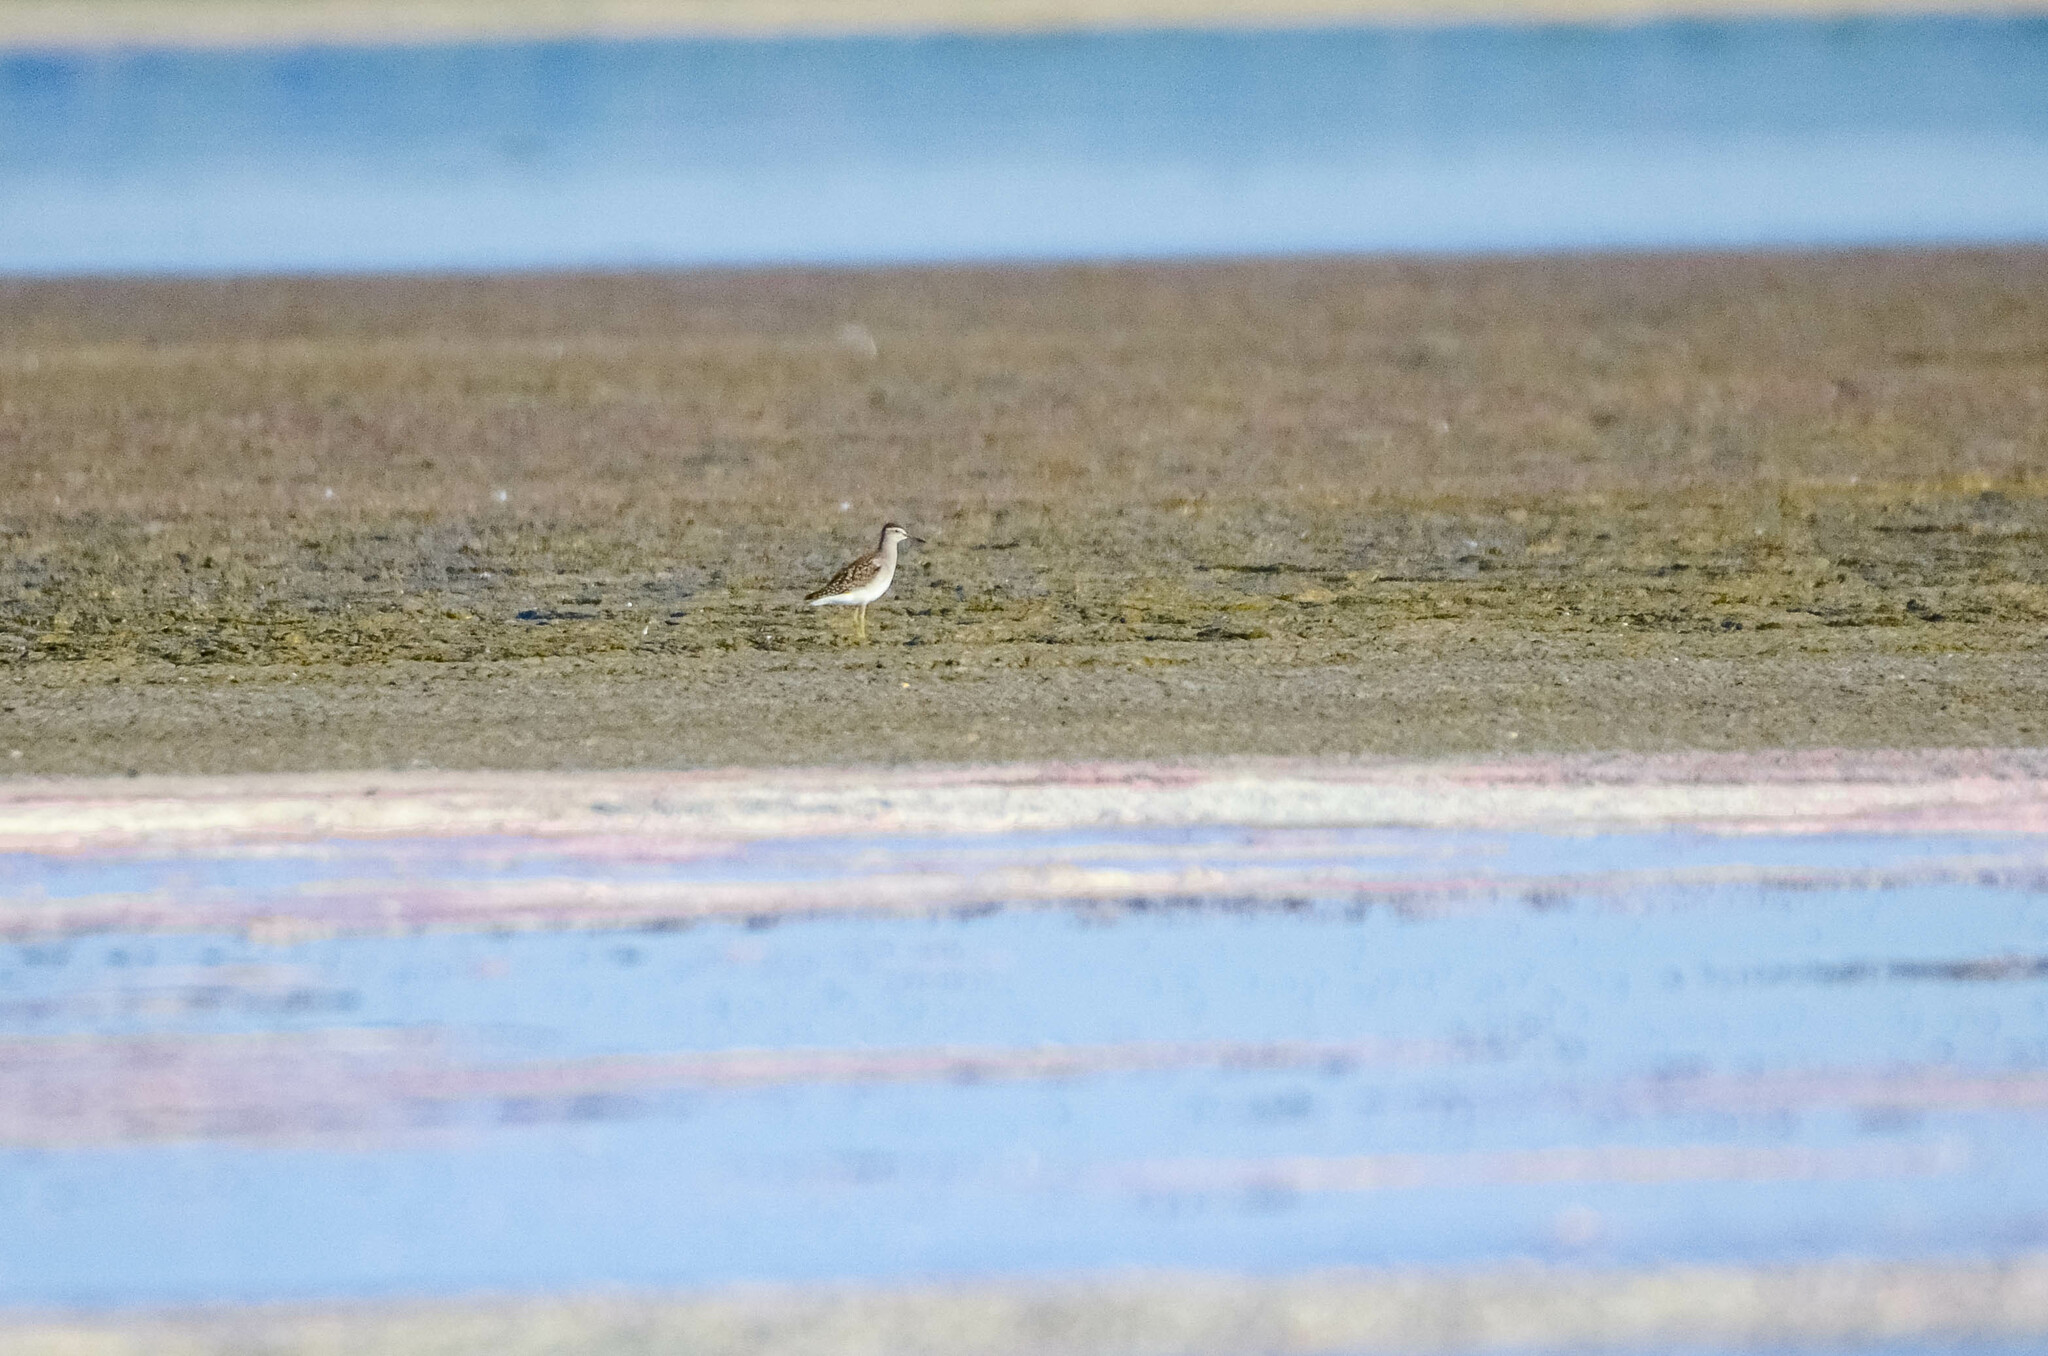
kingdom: Animalia
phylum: Chordata
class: Aves
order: Charadriiformes
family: Scolopacidae
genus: Tringa
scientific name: Tringa glareola
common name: Wood sandpiper
